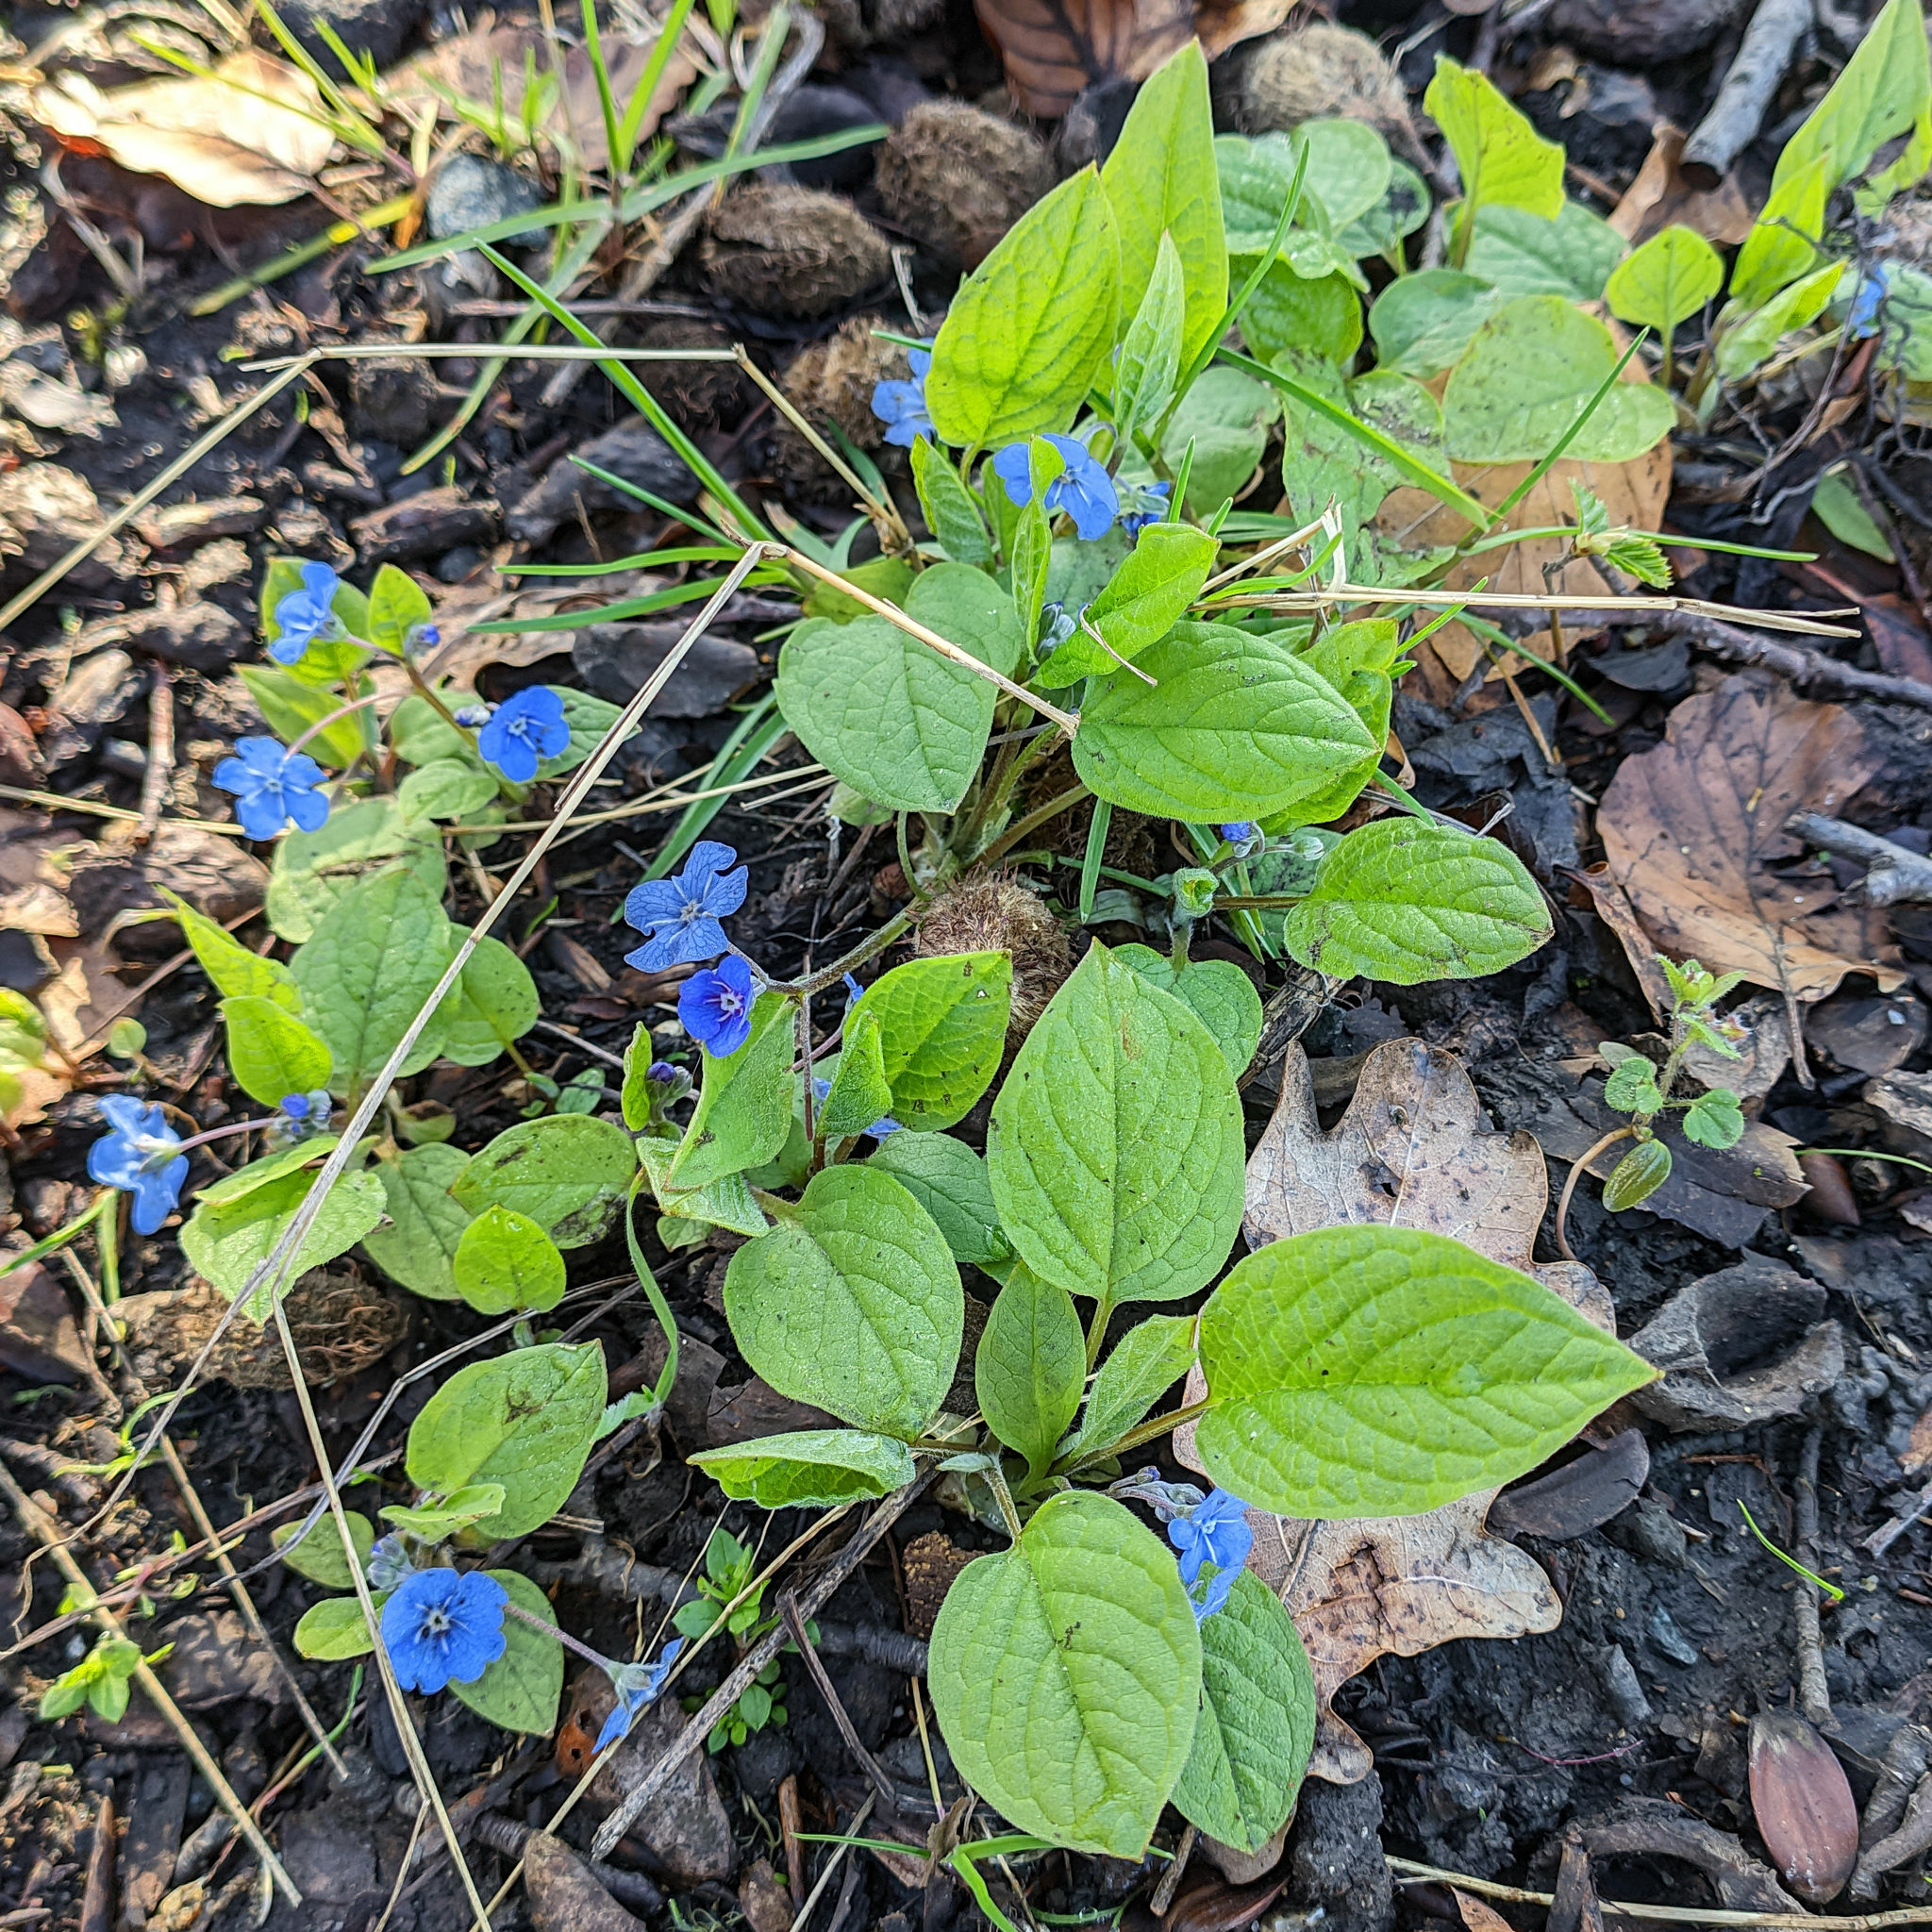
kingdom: Plantae
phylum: Tracheophyta
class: Magnoliopsida
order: Boraginales
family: Boraginaceae
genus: Omphalodes
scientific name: Omphalodes verna
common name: Blue-eyed-mary
